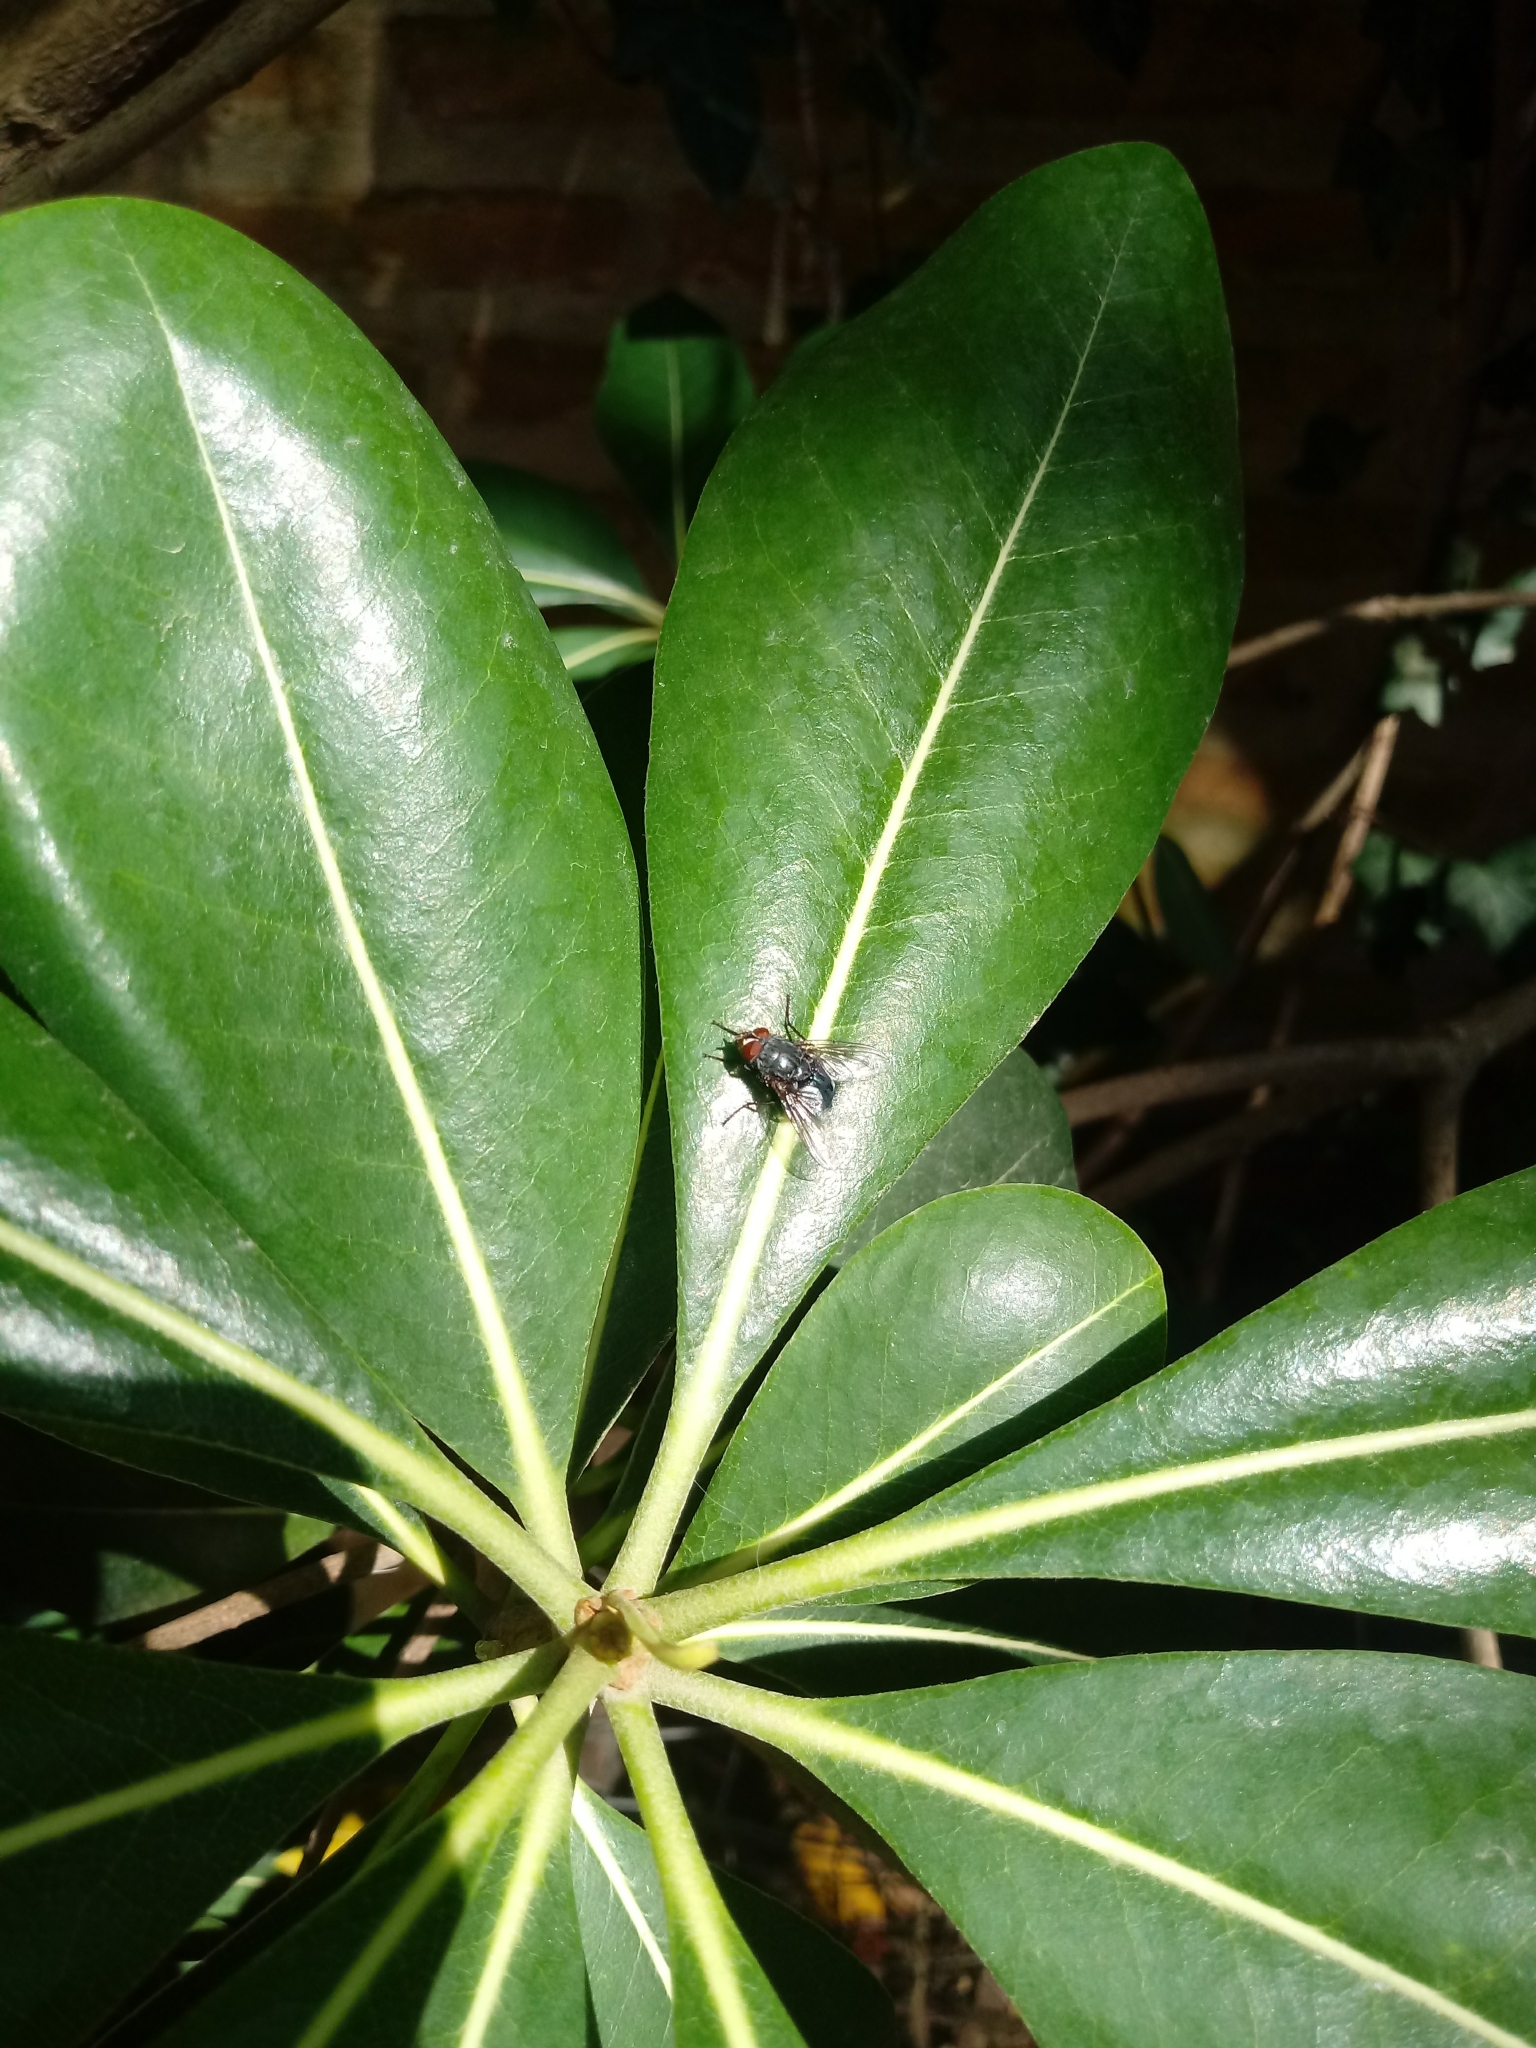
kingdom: Animalia
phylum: Arthropoda
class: Insecta
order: Diptera
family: Calliphoridae
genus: Calliphora
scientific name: Calliphora vicina
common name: Common blow flie
